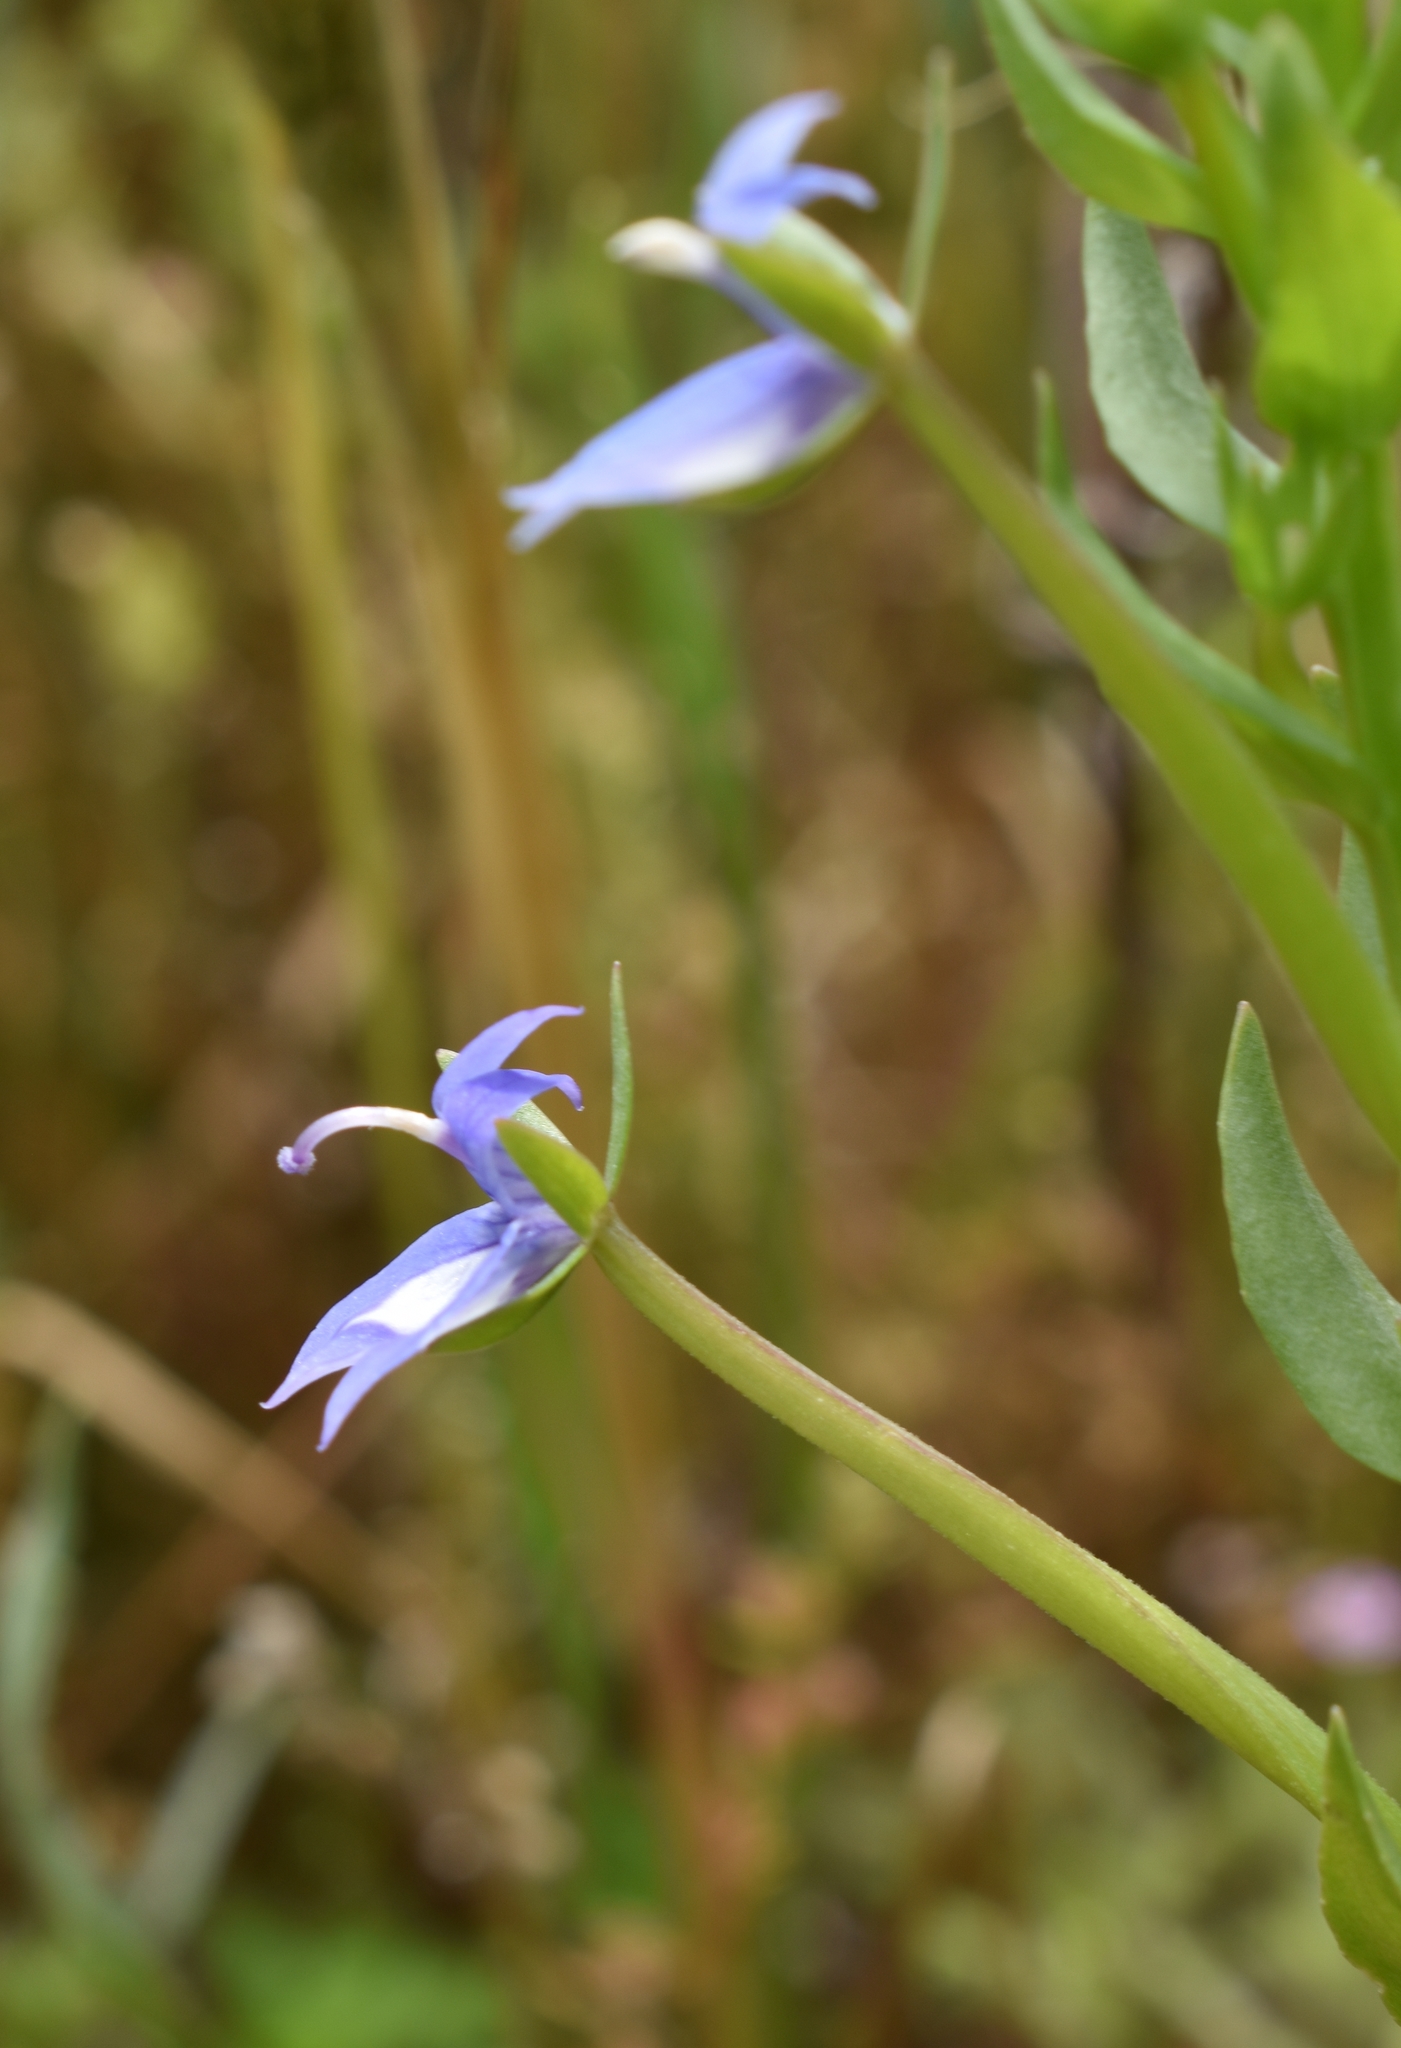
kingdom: Plantae
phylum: Tracheophyta
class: Magnoliopsida
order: Asterales
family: Campanulaceae
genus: Downingia
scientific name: Downingia elegans
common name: Californian lobelia
